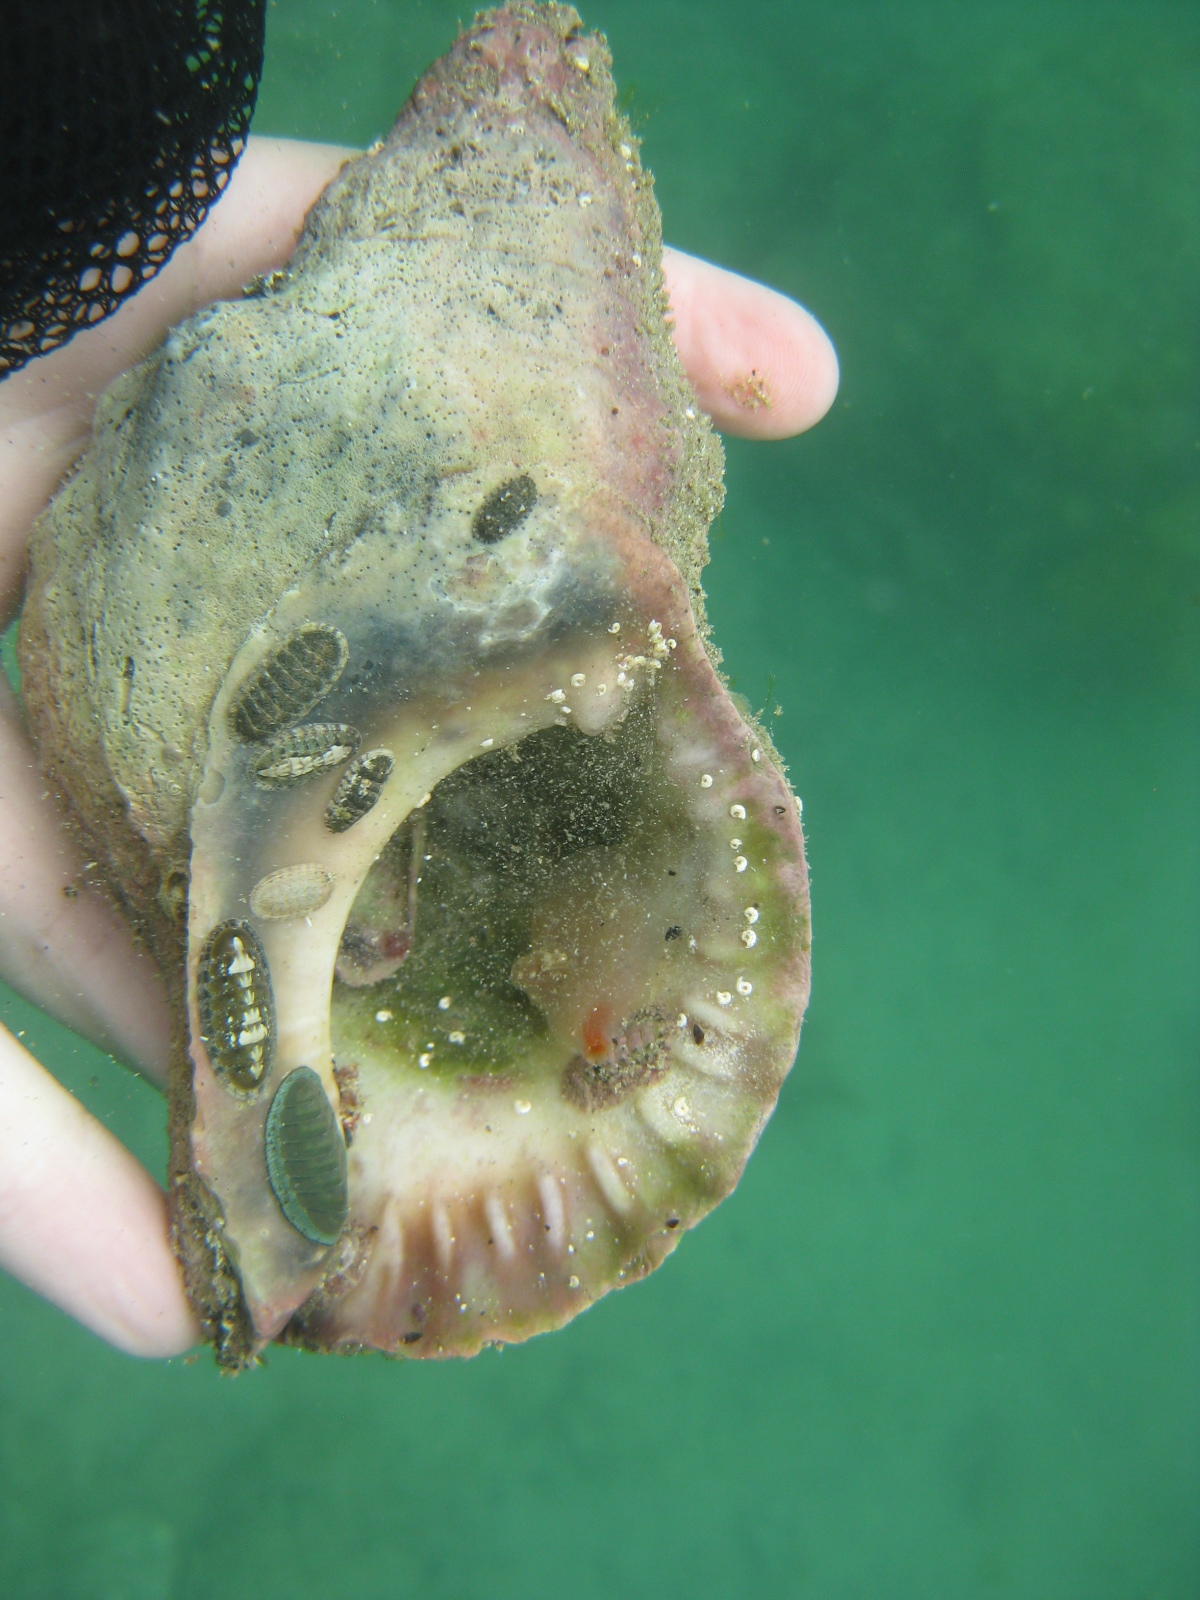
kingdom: Animalia
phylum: Mollusca
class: Polyplacophora
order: Chitonida
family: Chitonidae
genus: Chiton
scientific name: Chiton glaucus
